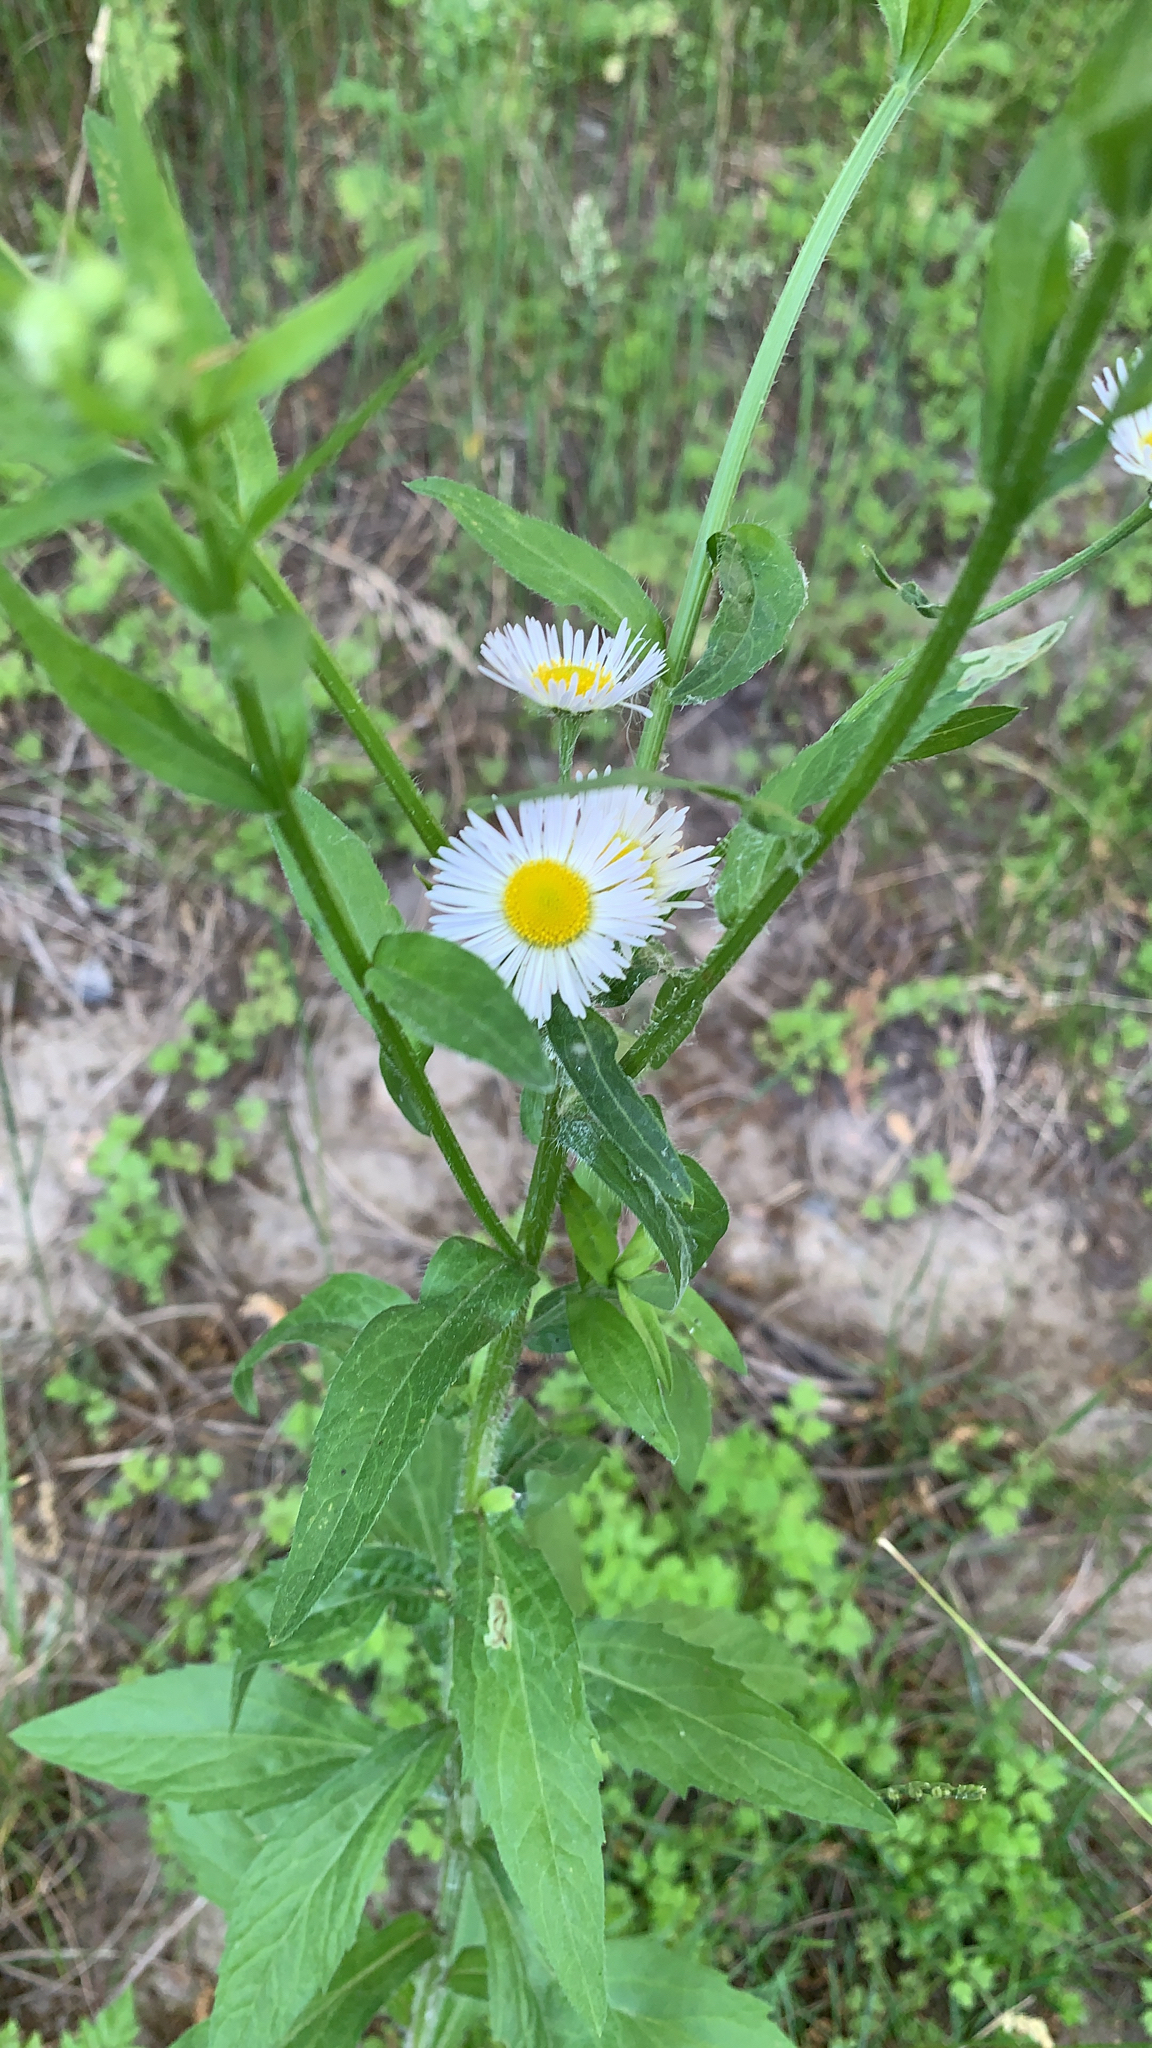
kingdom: Plantae
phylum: Tracheophyta
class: Magnoliopsida
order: Asterales
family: Asteraceae
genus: Erigeron
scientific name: Erigeron annuus
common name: Tall fleabane
